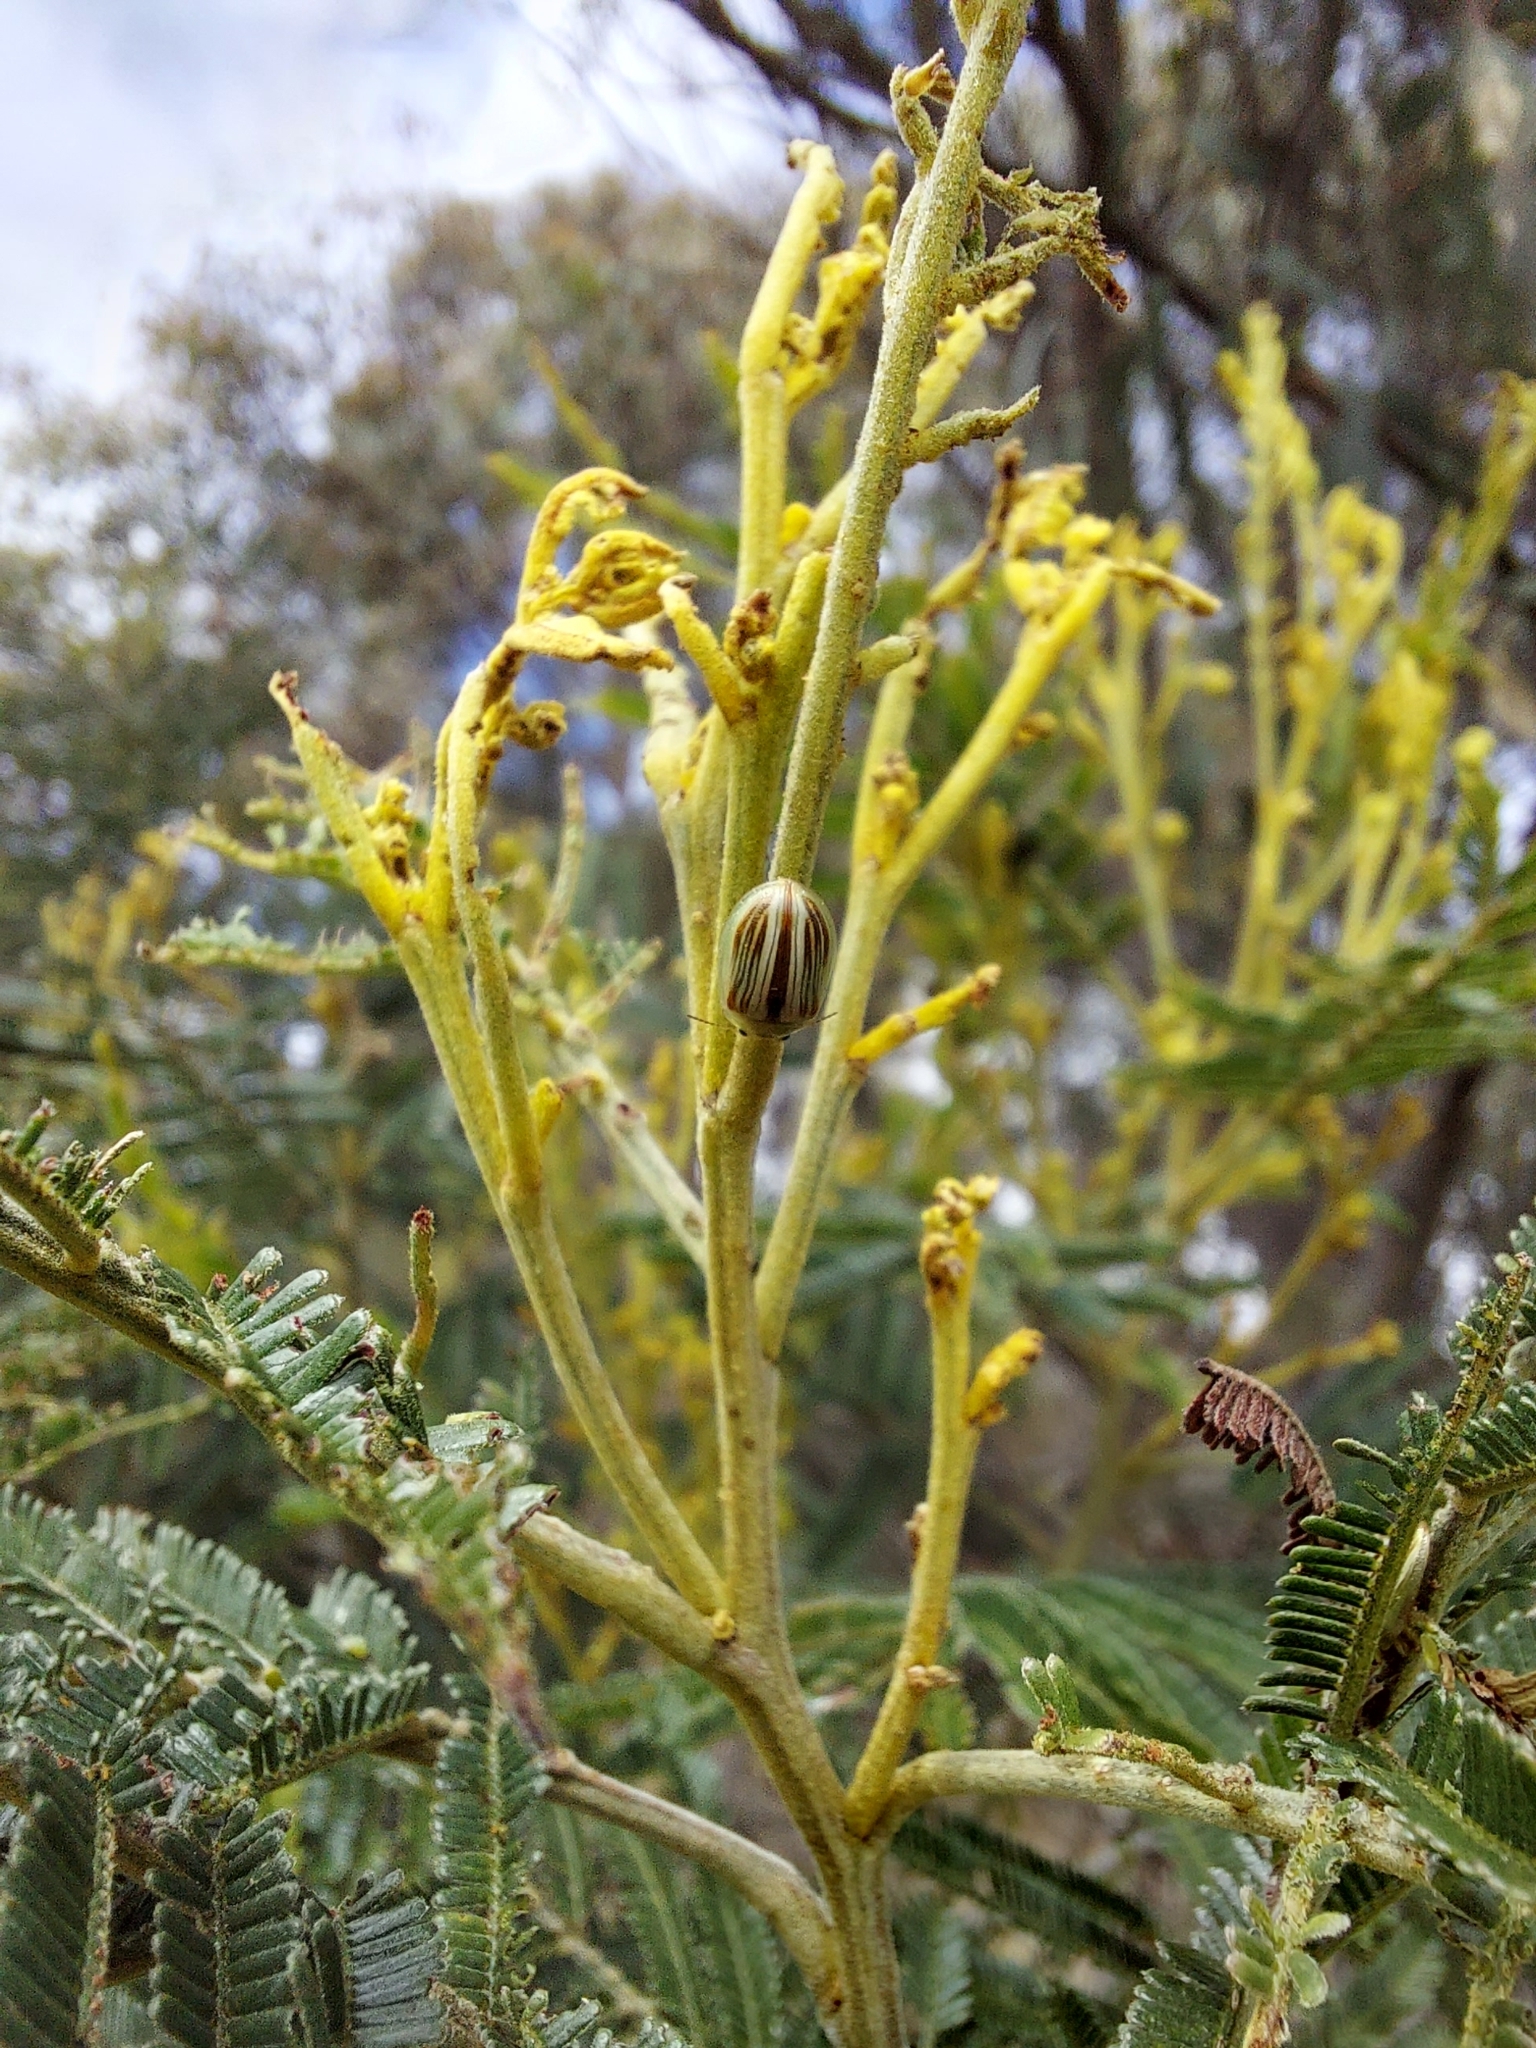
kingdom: Animalia
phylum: Arthropoda
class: Insecta
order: Coleoptera
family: Chrysomelidae
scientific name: Chrysomelidae
